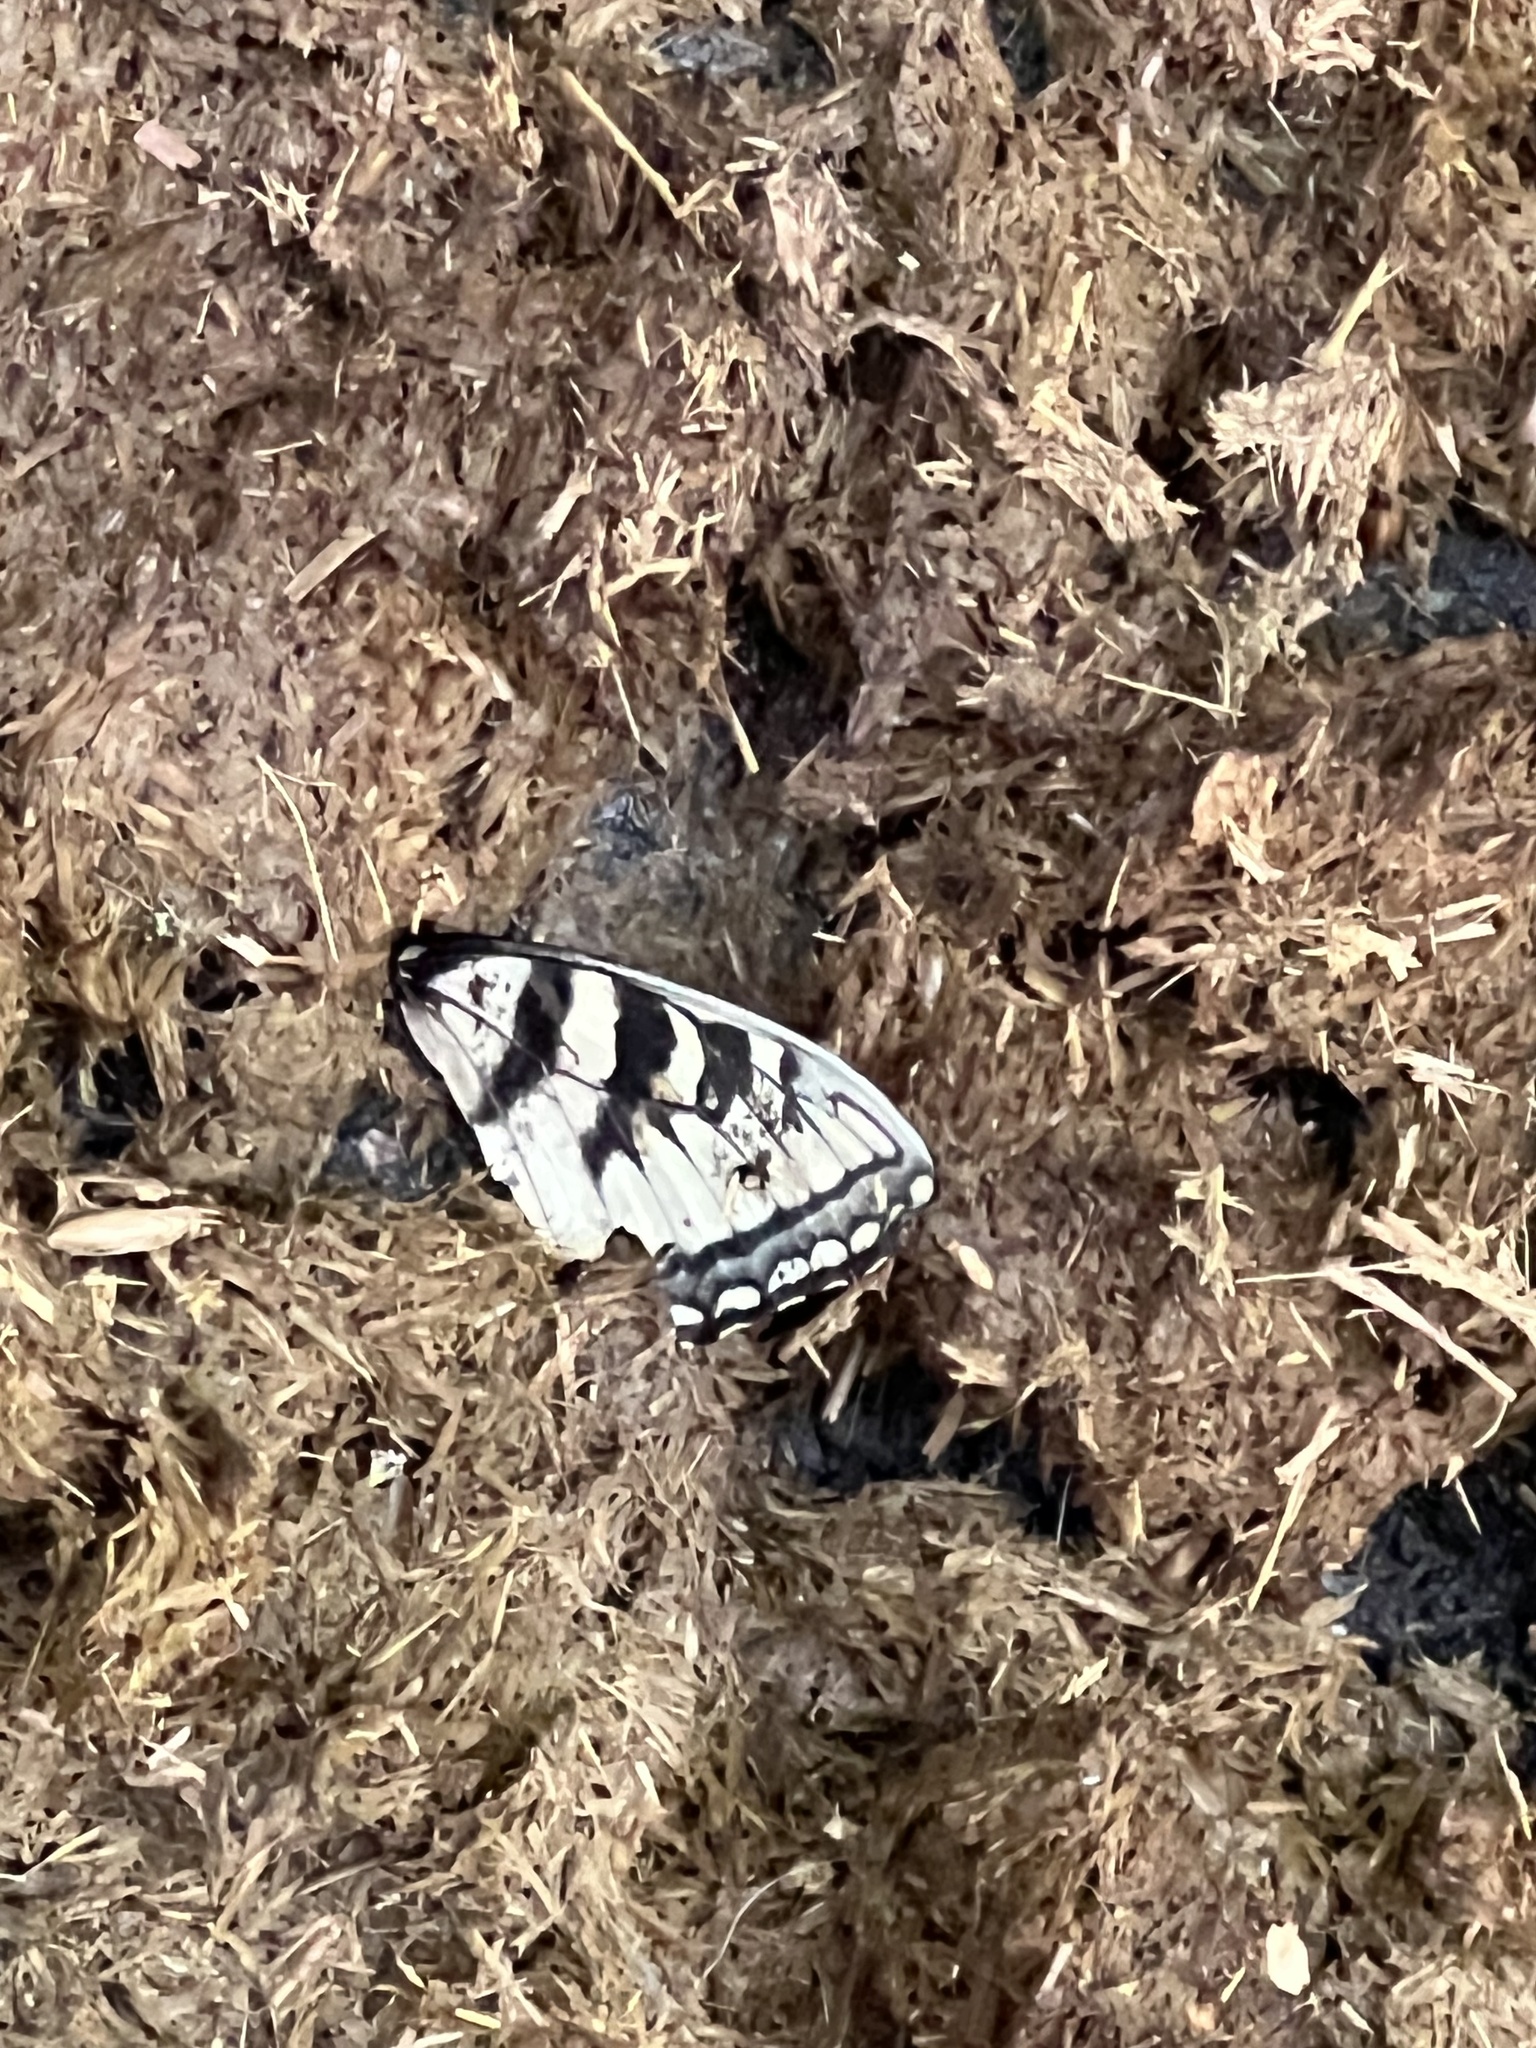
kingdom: Animalia
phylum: Arthropoda
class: Insecta
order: Lepidoptera
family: Papilionidae
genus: Papilio
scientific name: Papilio glaucus
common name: Tiger swallowtail
